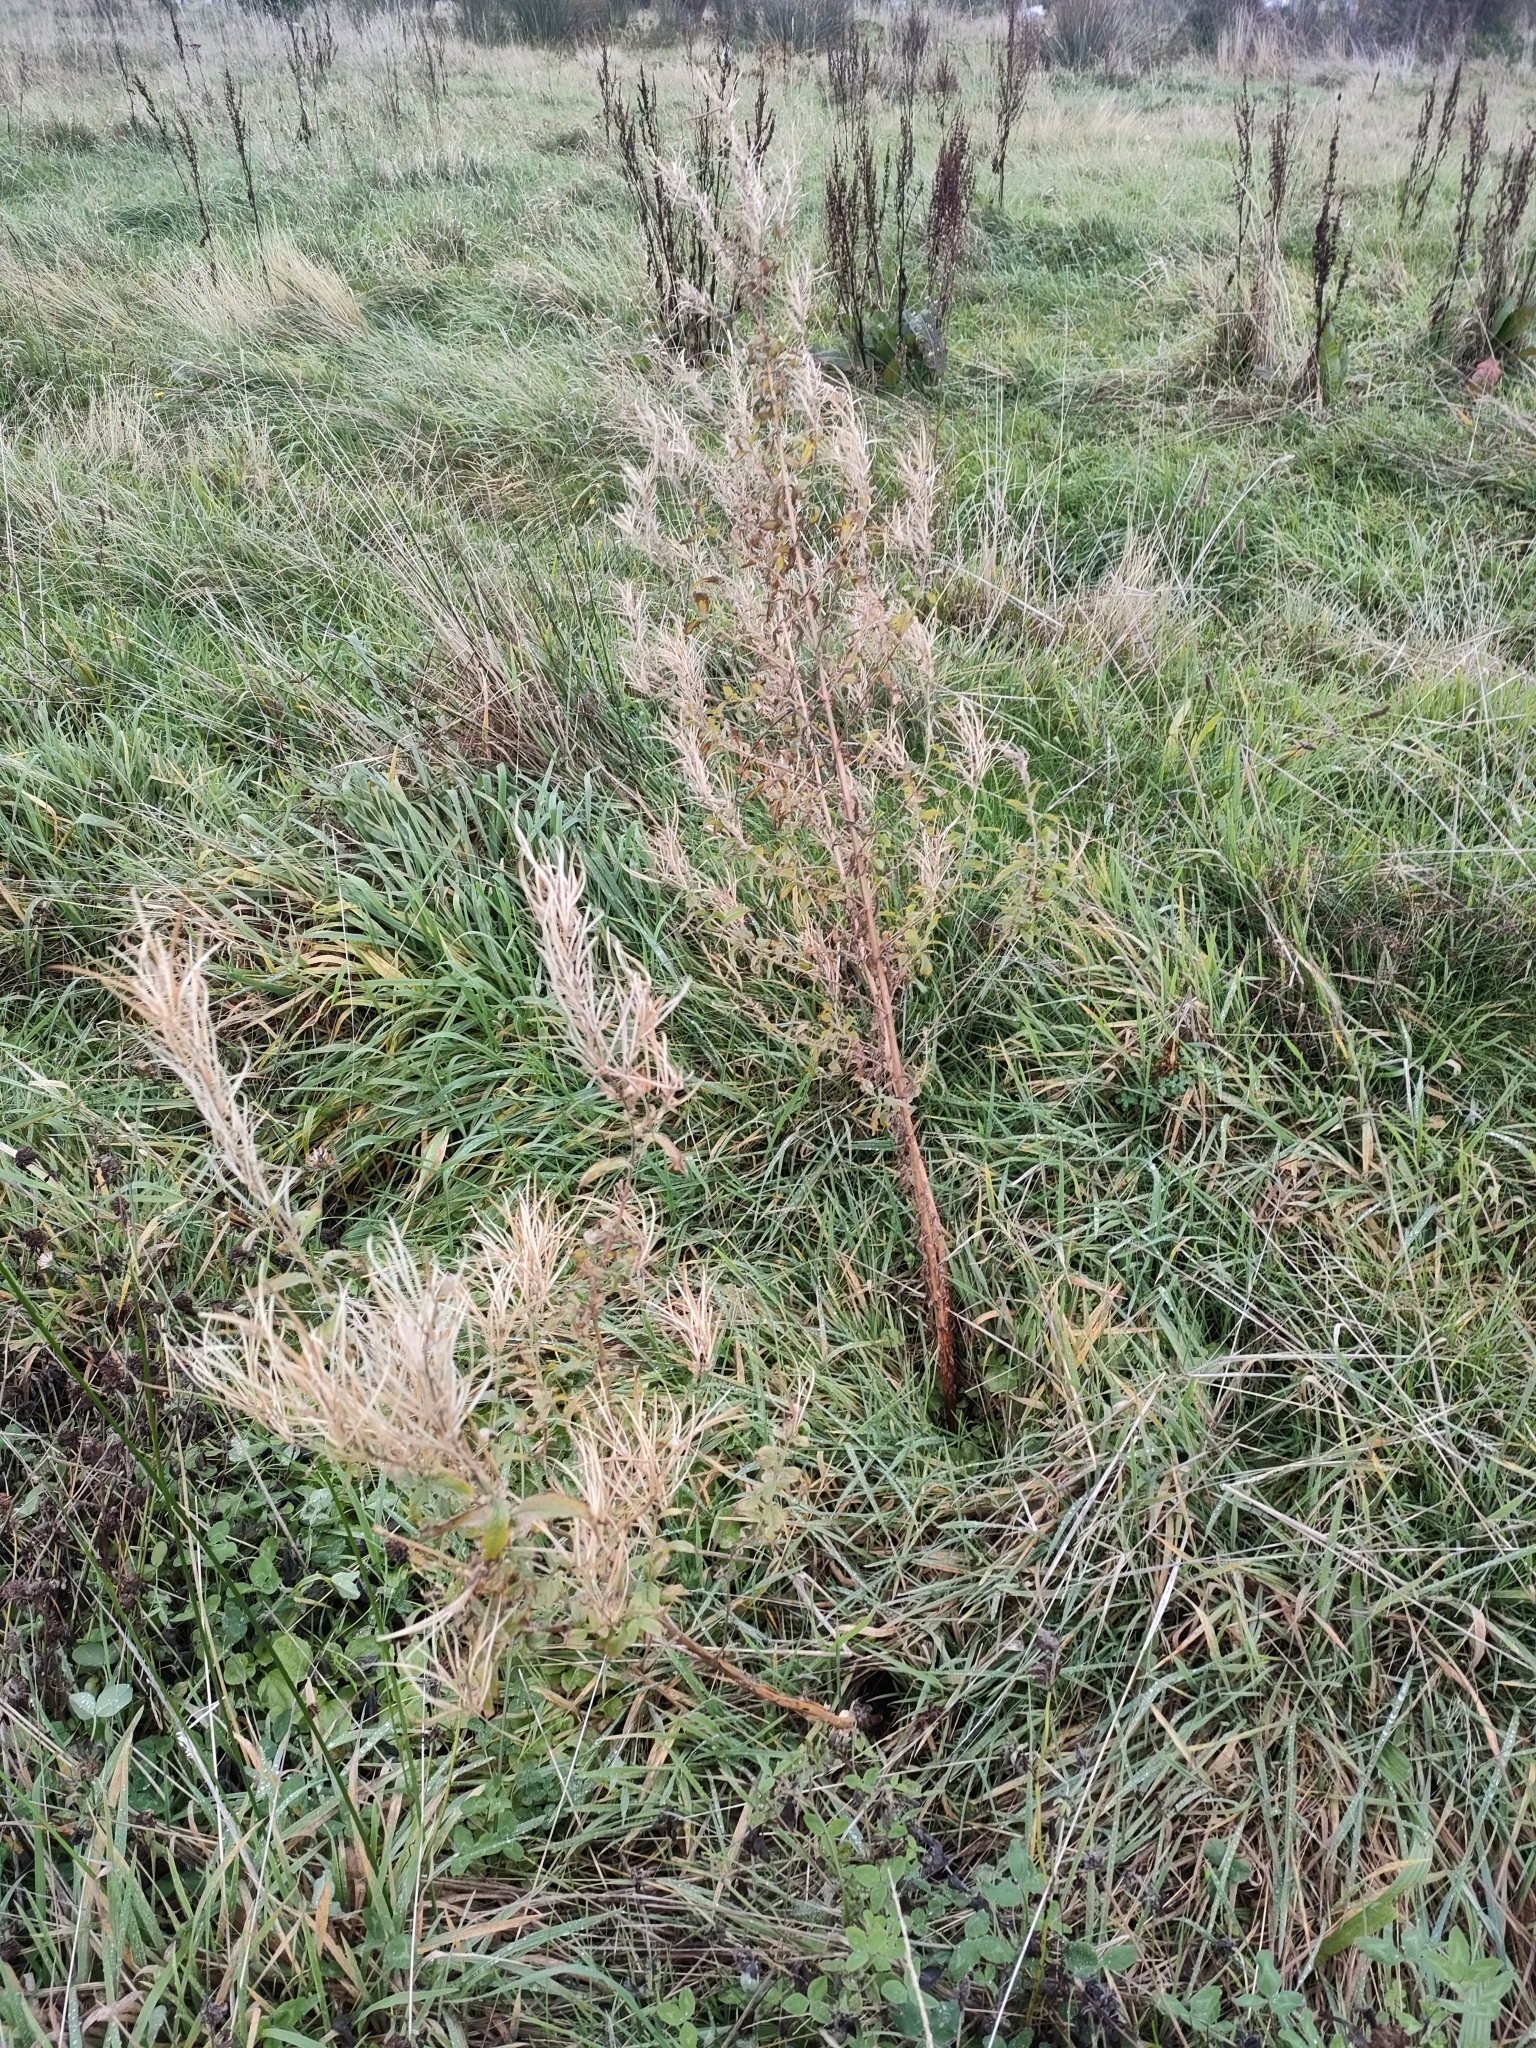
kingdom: Plantae
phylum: Tracheophyta
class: Magnoliopsida
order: Myrtales
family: Onagraceae
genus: Epilobium
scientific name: Epilobium hirsutum
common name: Great willowherb
